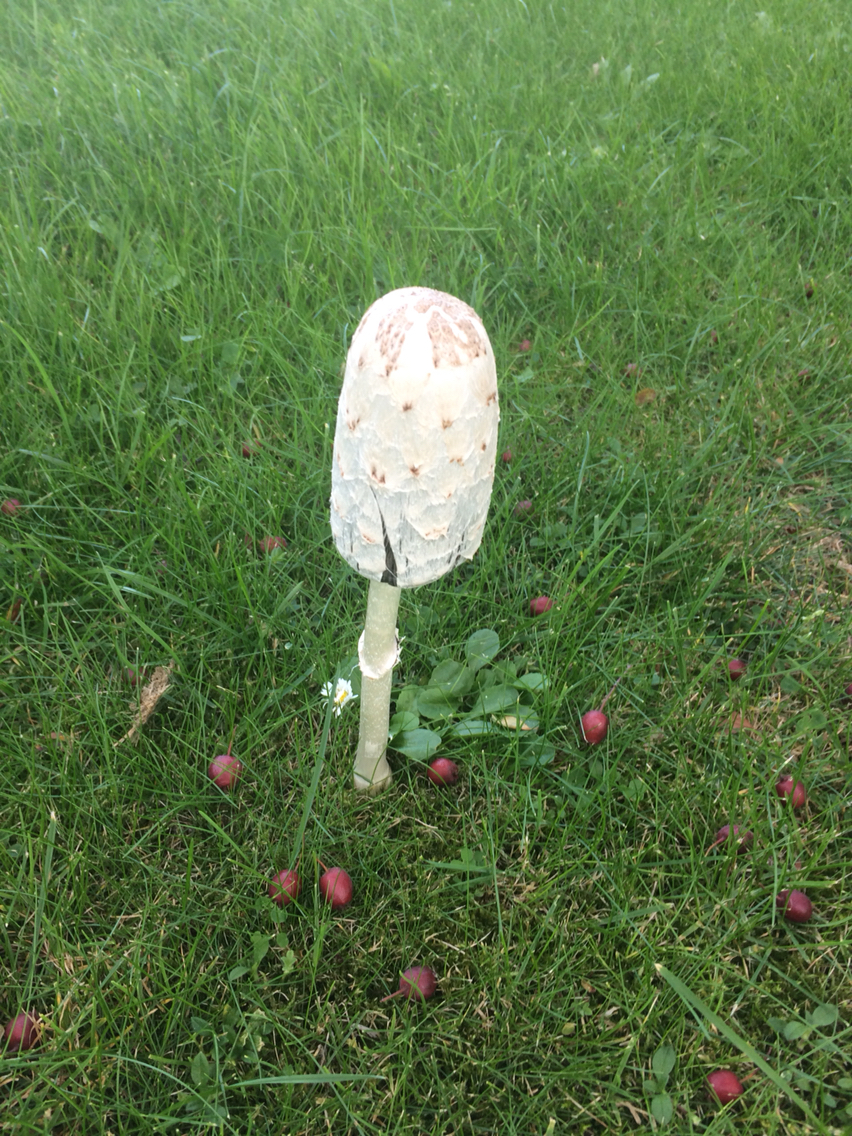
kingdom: Fungi
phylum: Basidiomycota
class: Agaricomycetes
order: Agaricales
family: Agaricaceae
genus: Coprinus
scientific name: Coprinus comatus
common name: Lawyer's wig
